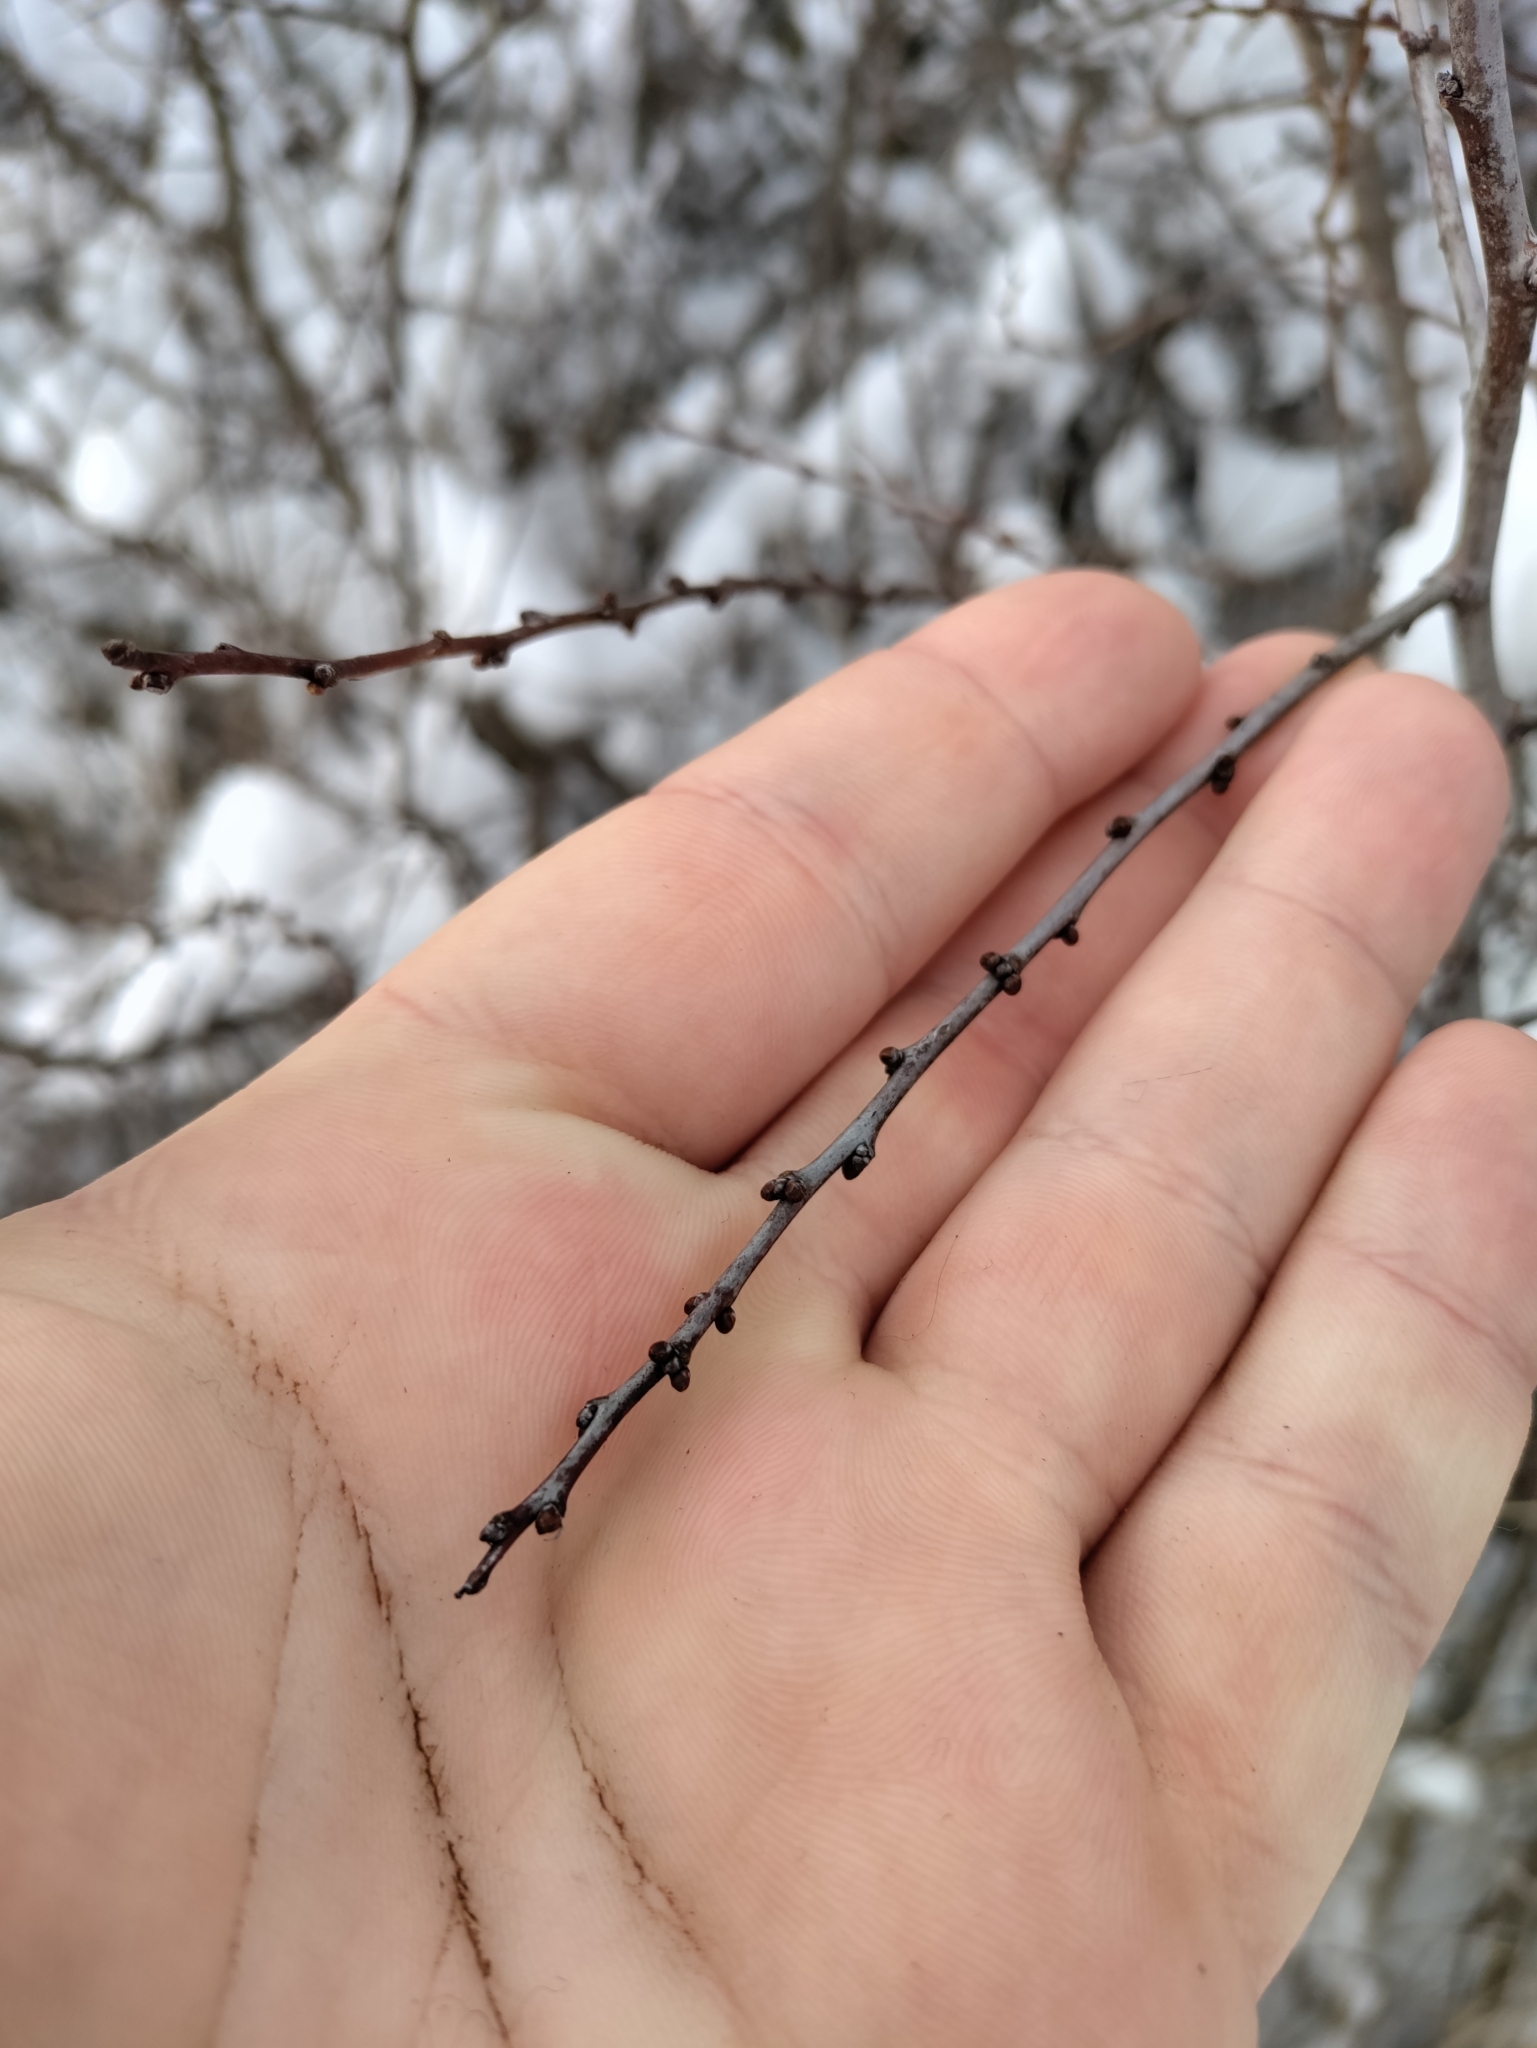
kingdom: Plantae
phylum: Tracheophyta
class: Magnoliopsida
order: Rosales
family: Rosaceae
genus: Prunus
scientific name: Prunus spinosa
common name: Blackthorn
